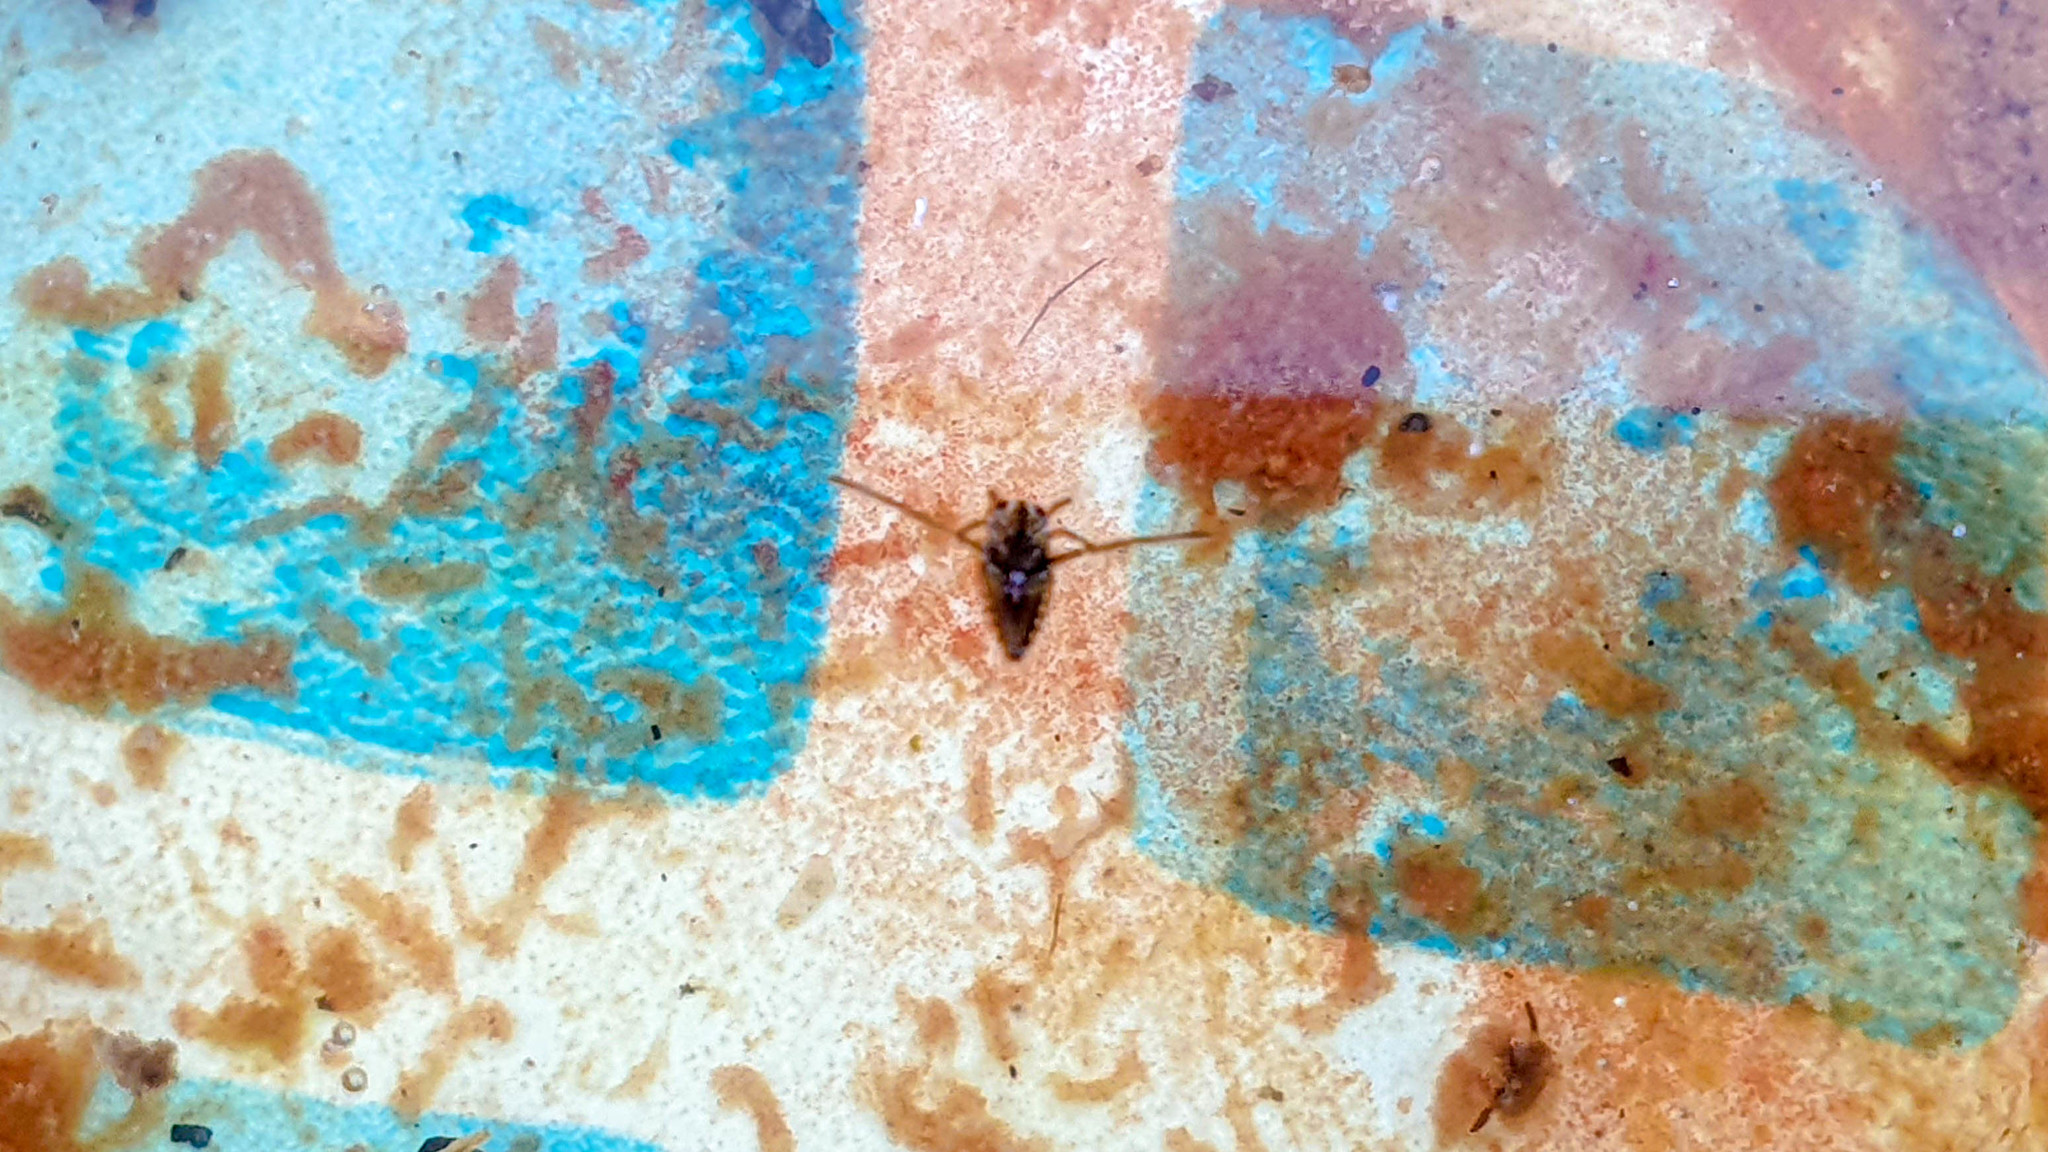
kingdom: Animalia
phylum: Arthropoda
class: Insecta
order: Hemiptera
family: Notonectidae
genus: Notonecta
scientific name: Notonecta
